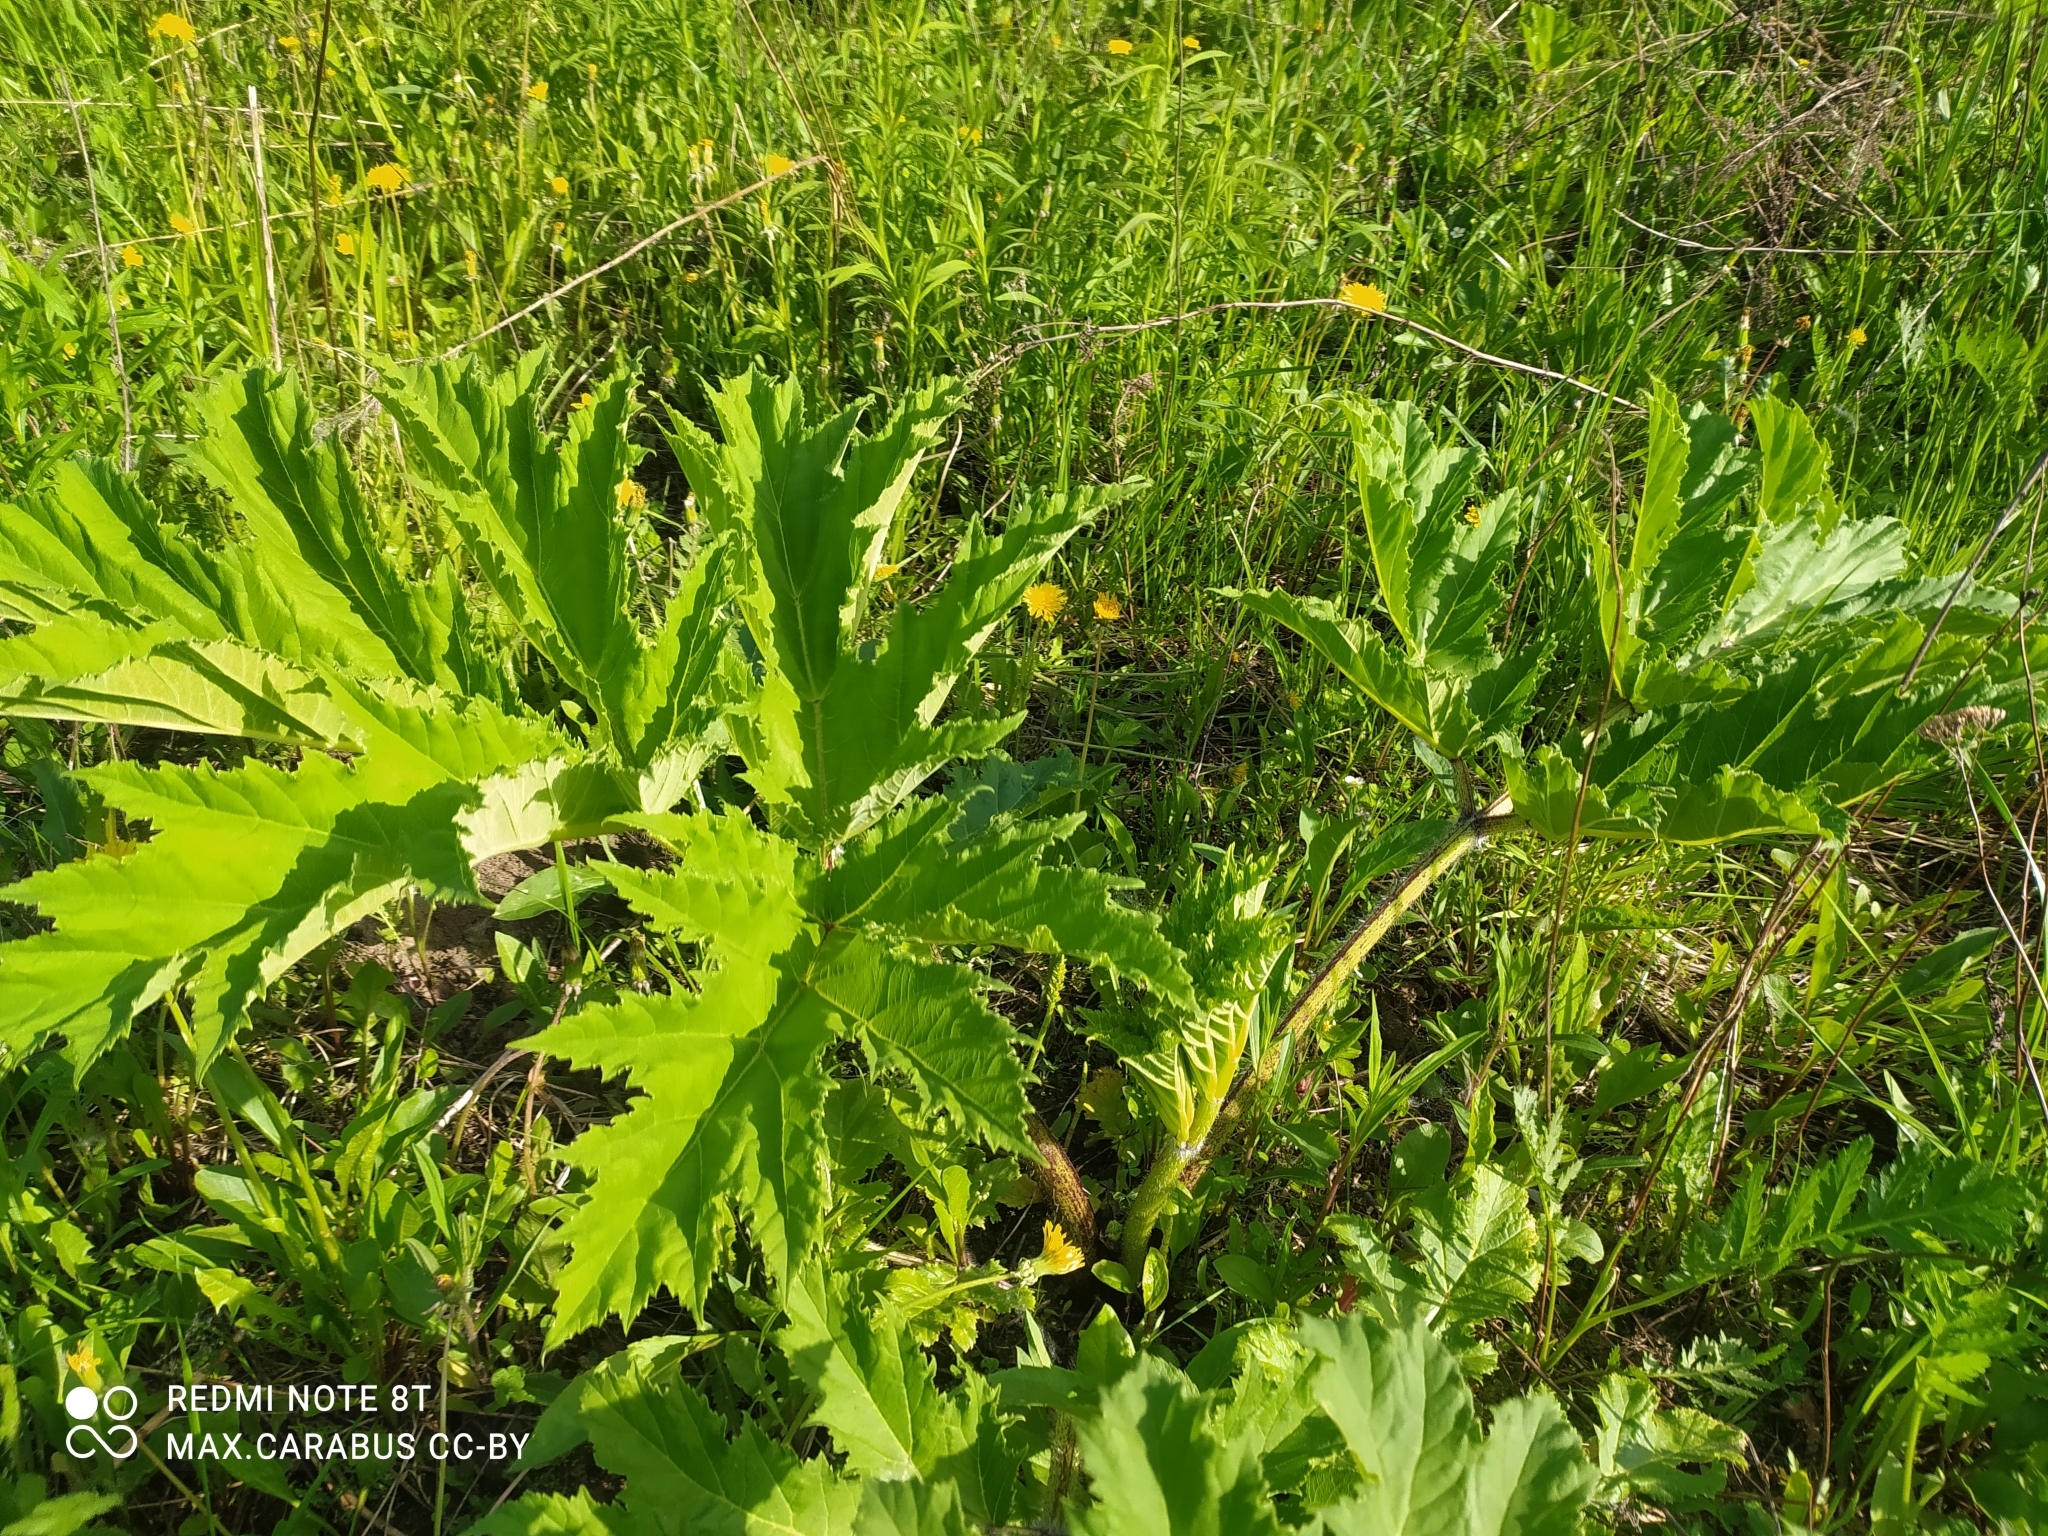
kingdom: Plantae
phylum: Tracheophyta
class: Magnoliopsida
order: Apiales
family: Apiaceae
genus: Heracleum
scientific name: Heracleum sosnowskyi
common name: Sosnowsky's hogweed
